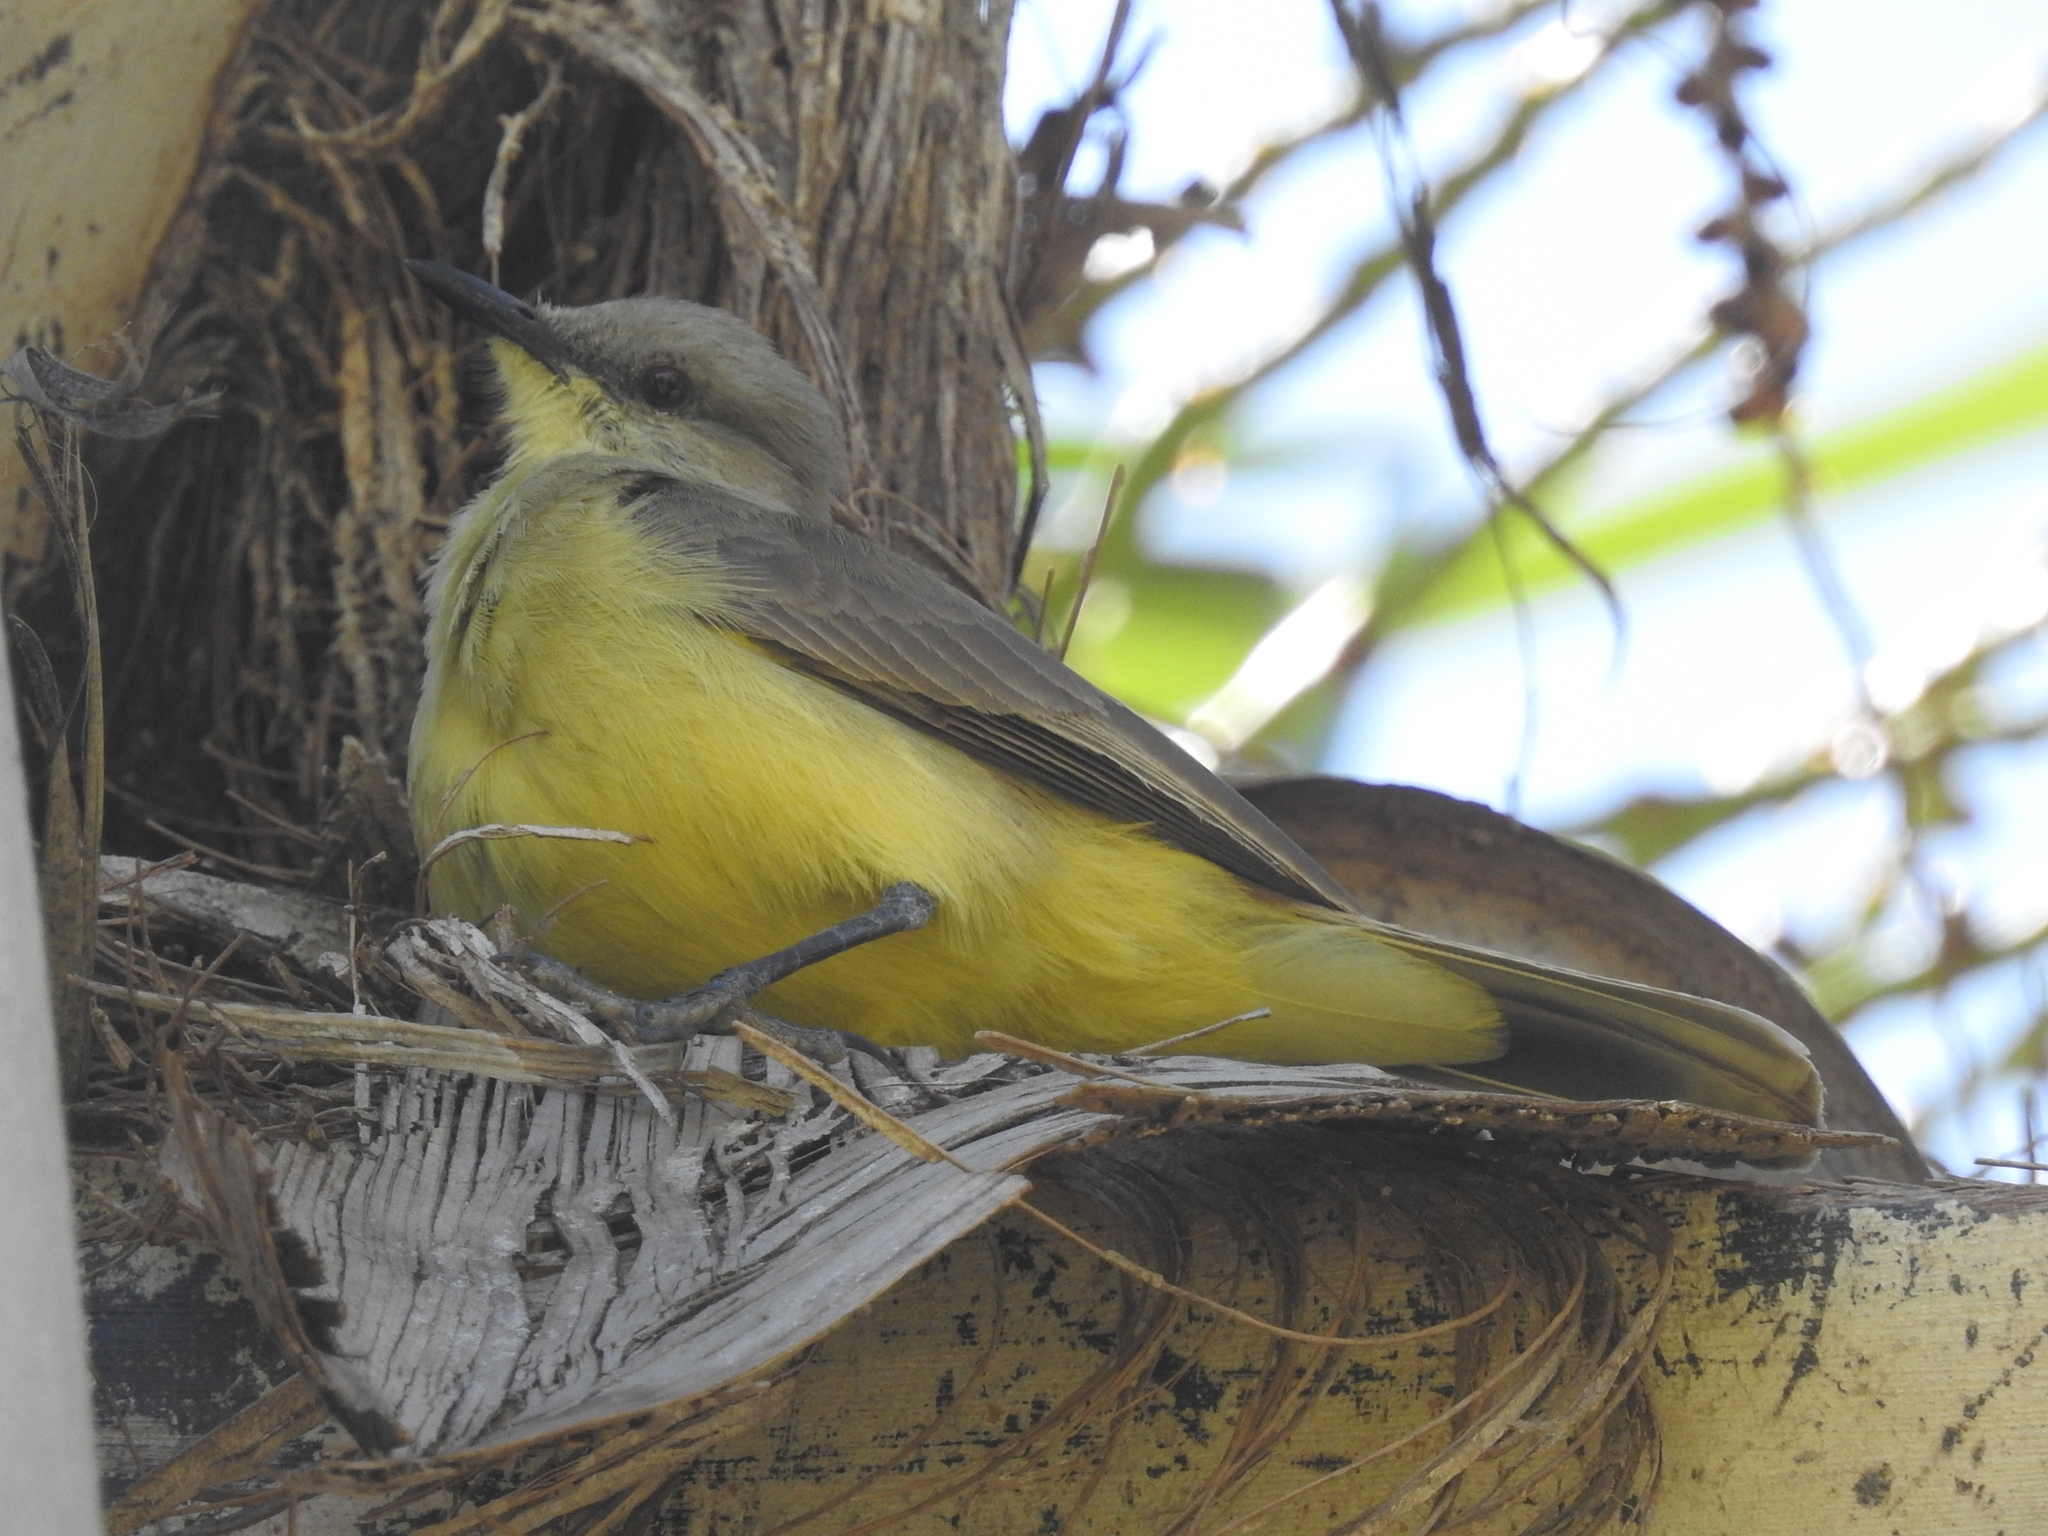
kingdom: Animalia
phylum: Chordata
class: Aves
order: Passeriformes
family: Tyrannidae
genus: Machetornis
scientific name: Machetornis rixosa
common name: Cattle tyrant
